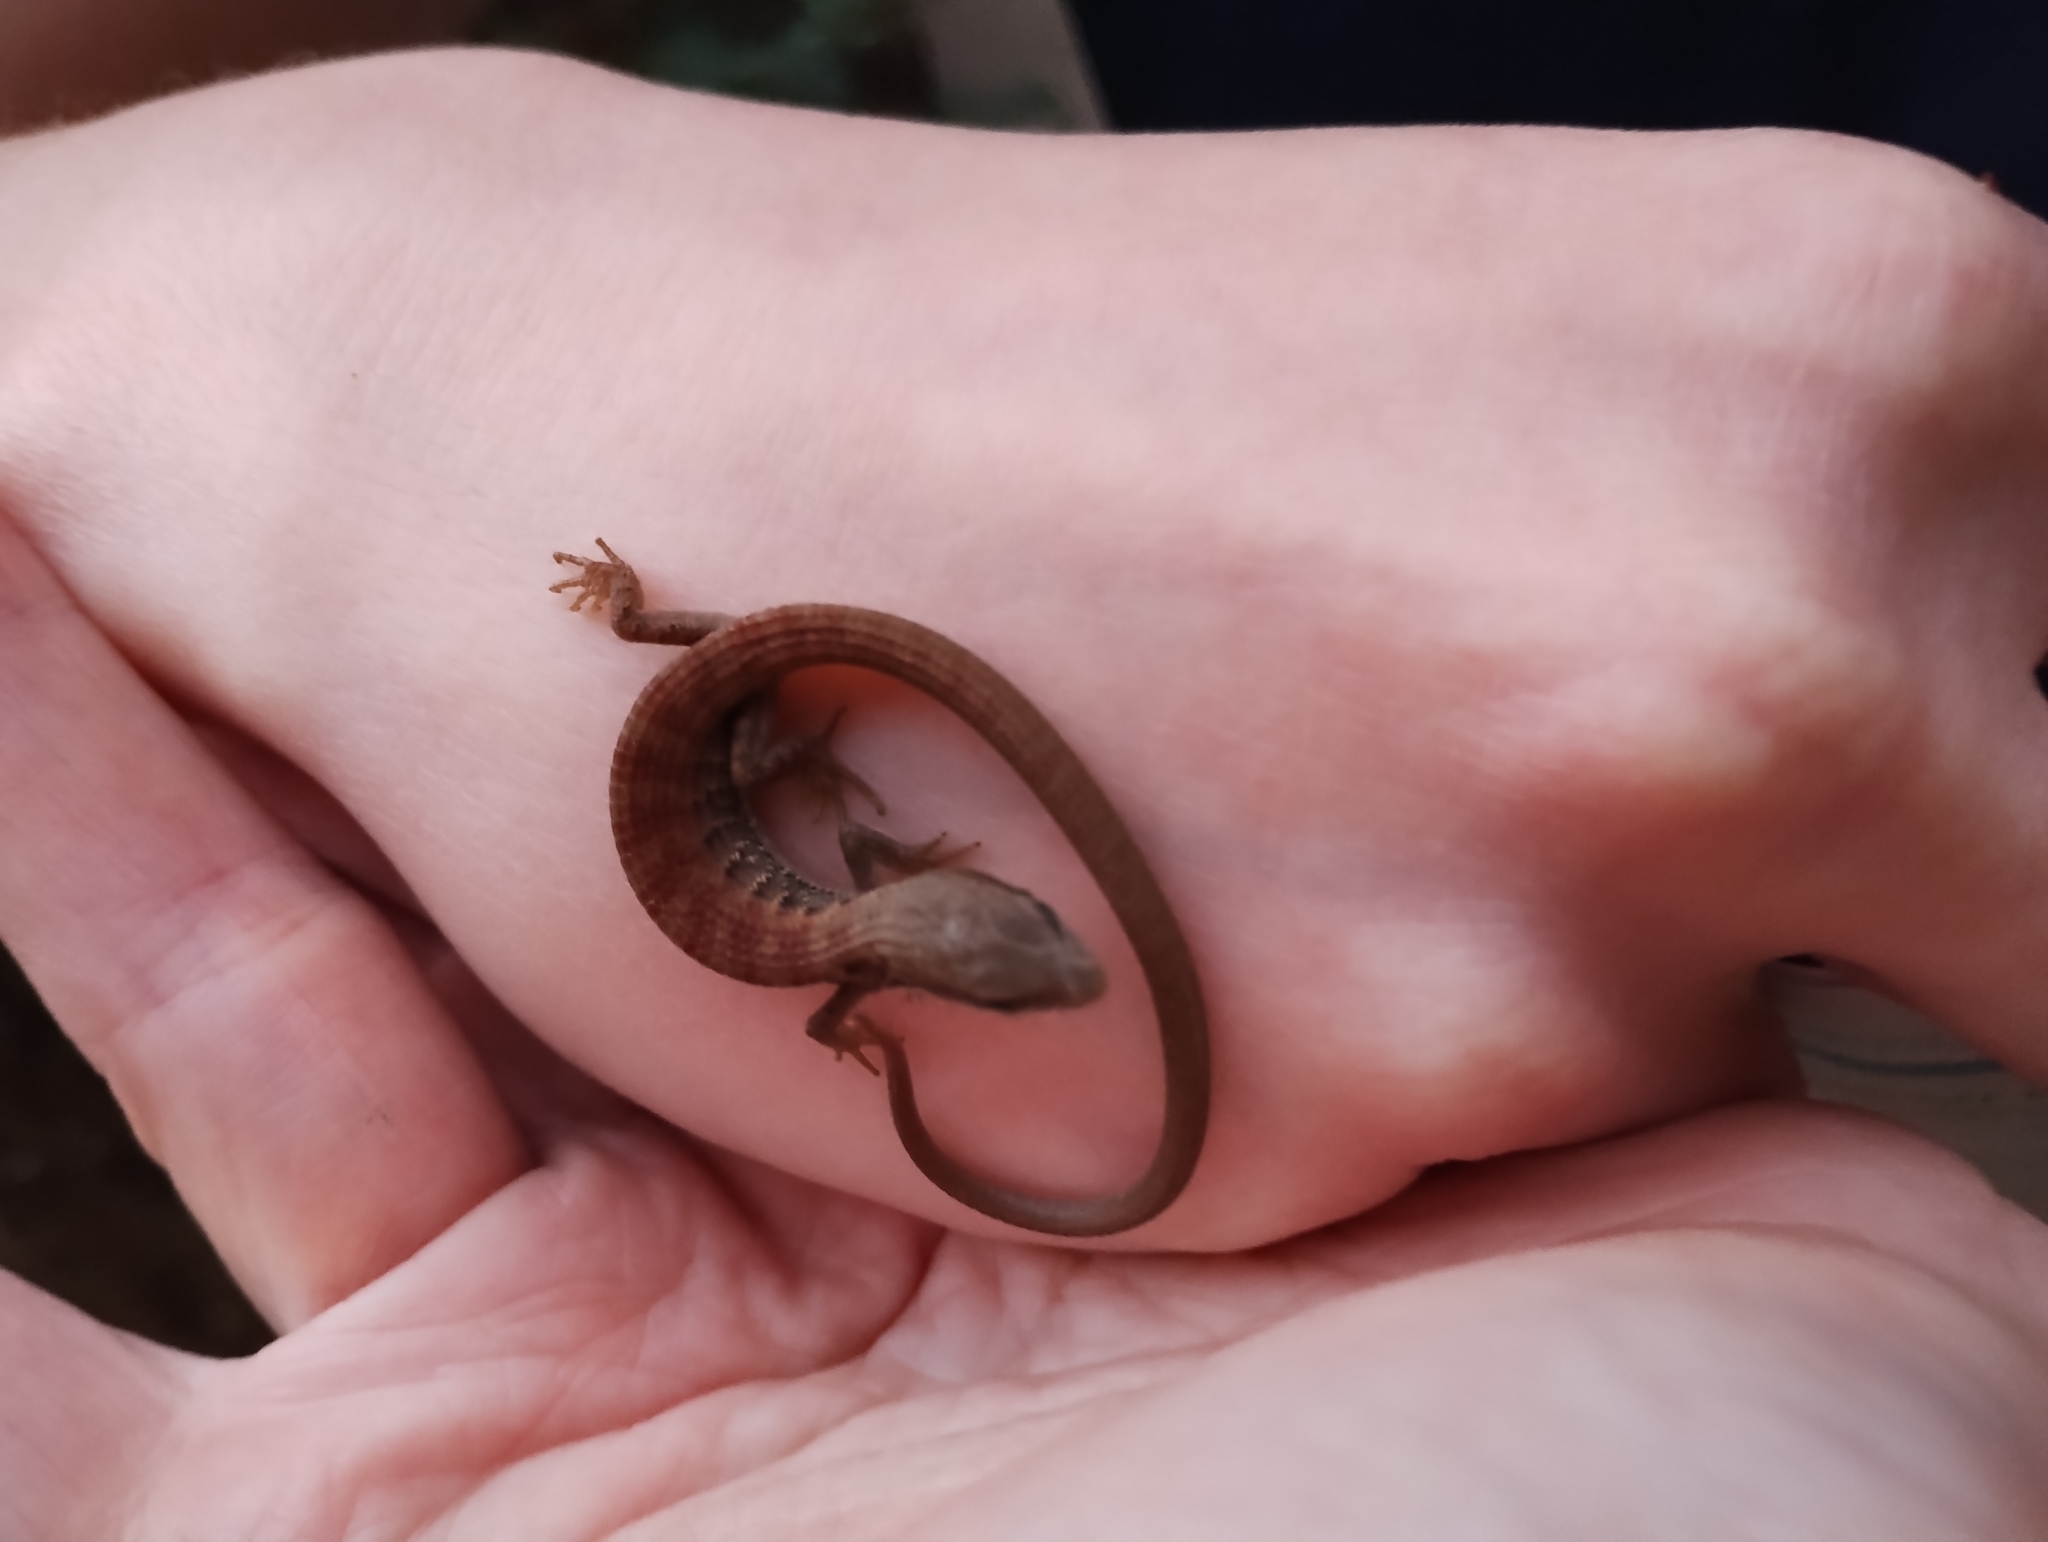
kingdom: Animalia
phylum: Chordata
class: Squamata
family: Anguidae
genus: Elgaria
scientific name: Elgaria multicarinata
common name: Southern alligator lizard
